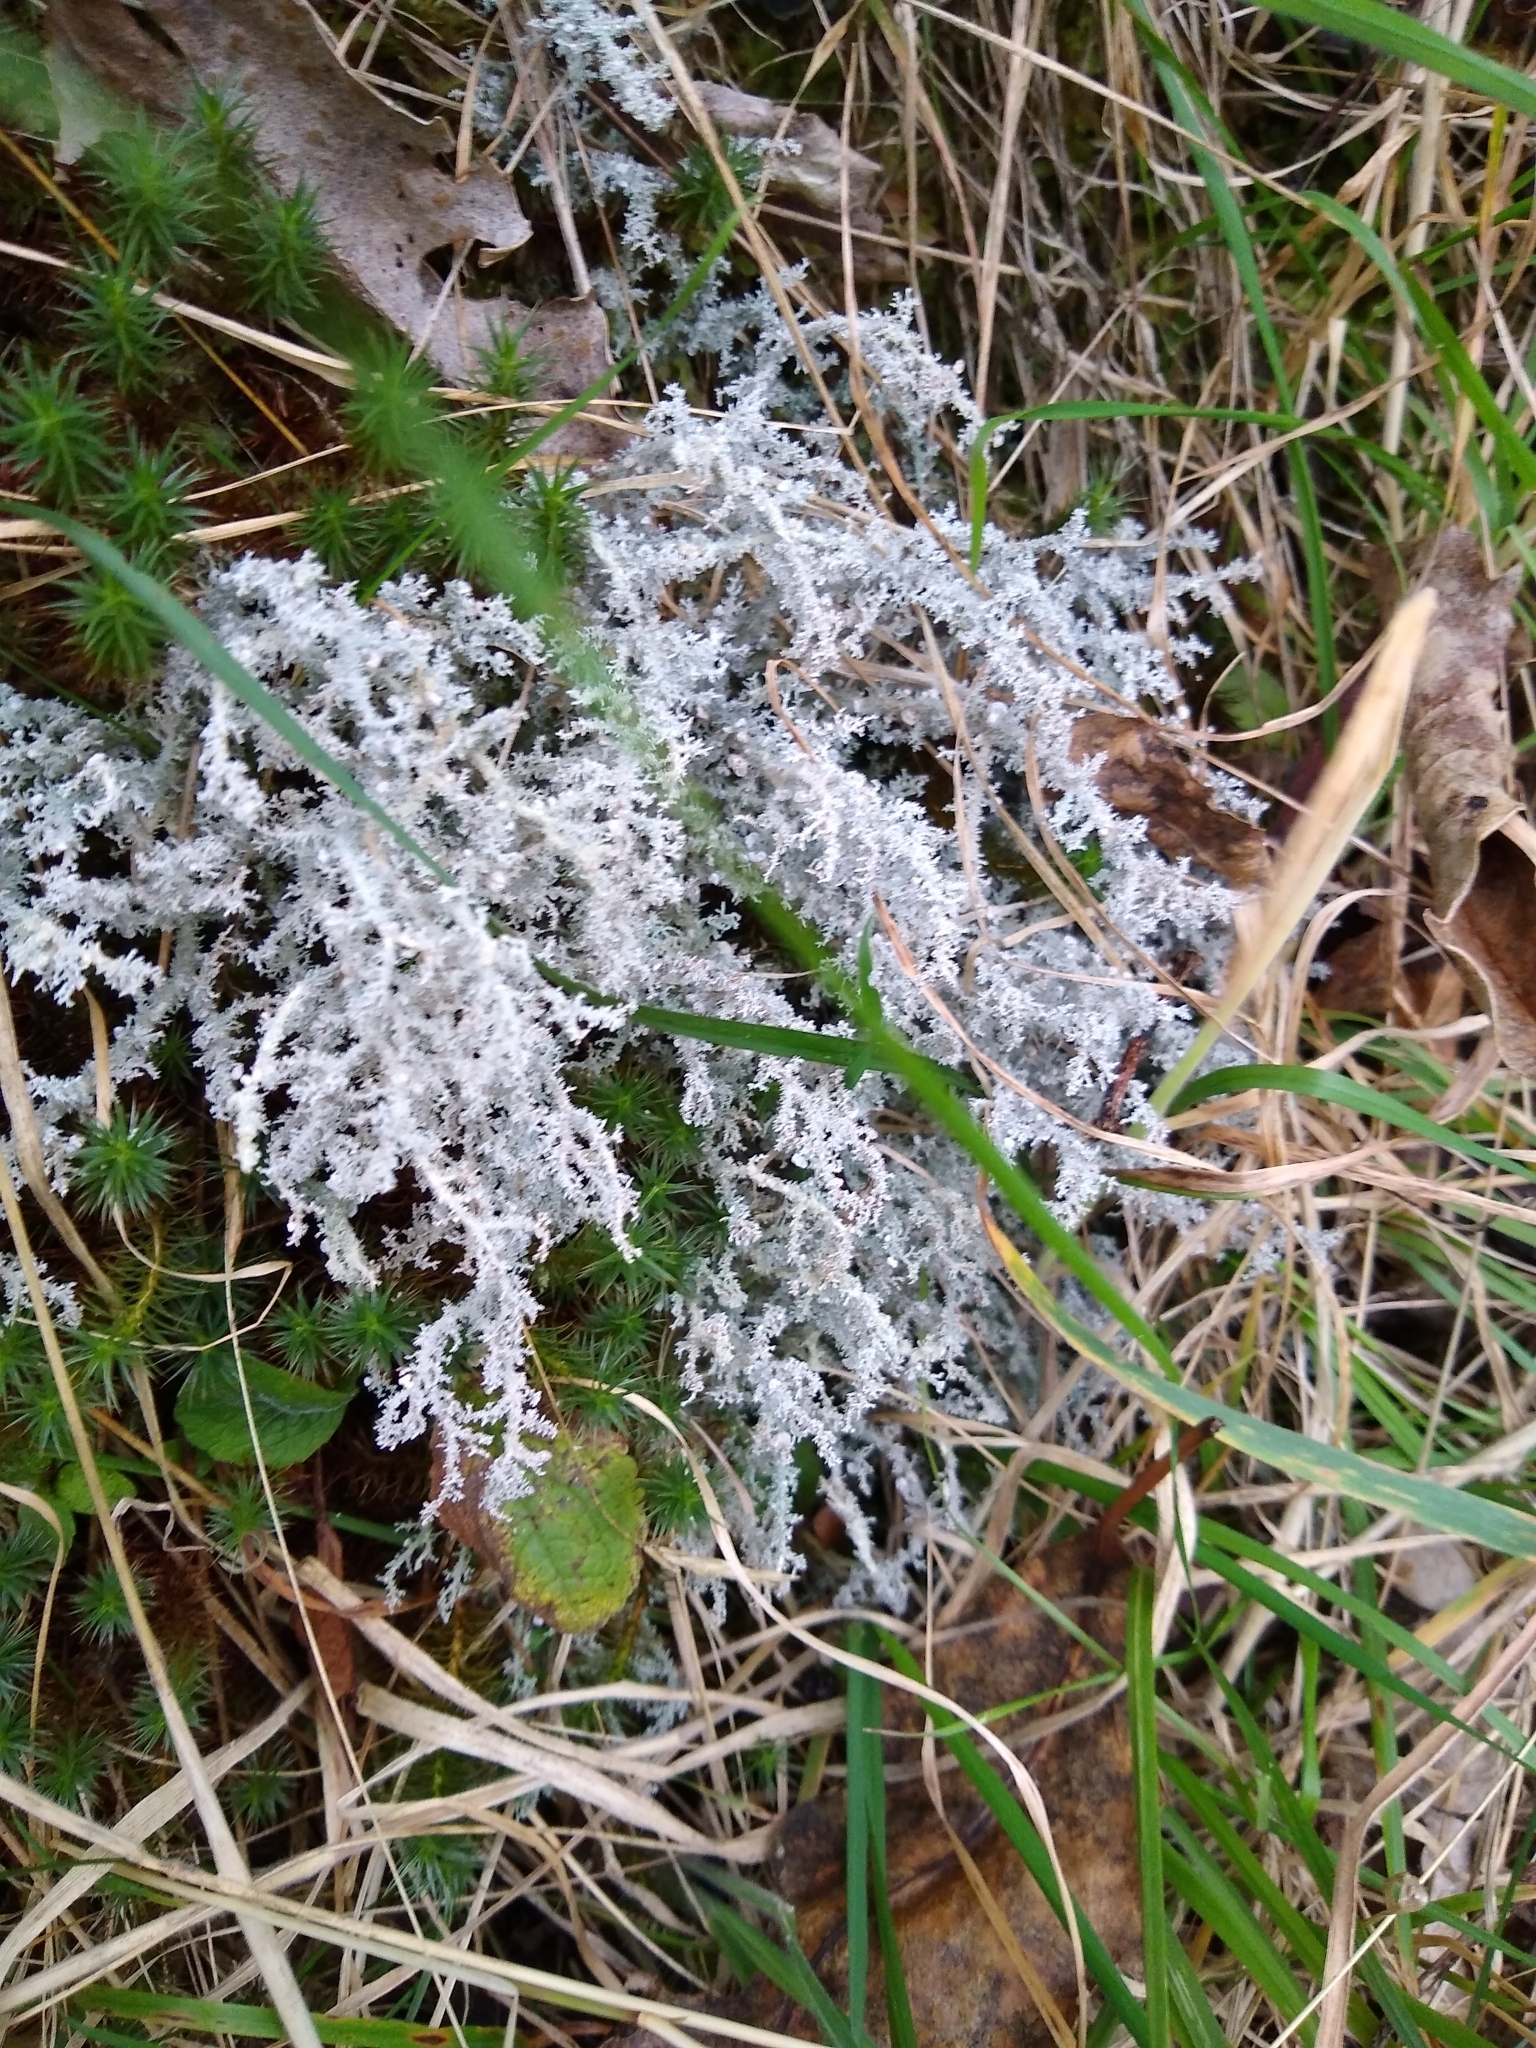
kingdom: Fungi
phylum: Ascomycota
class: Lecanoromycetes
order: Lecanorales
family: Stereocaulaceae
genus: Stereocaulon
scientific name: Stereocaulon ramulosum
